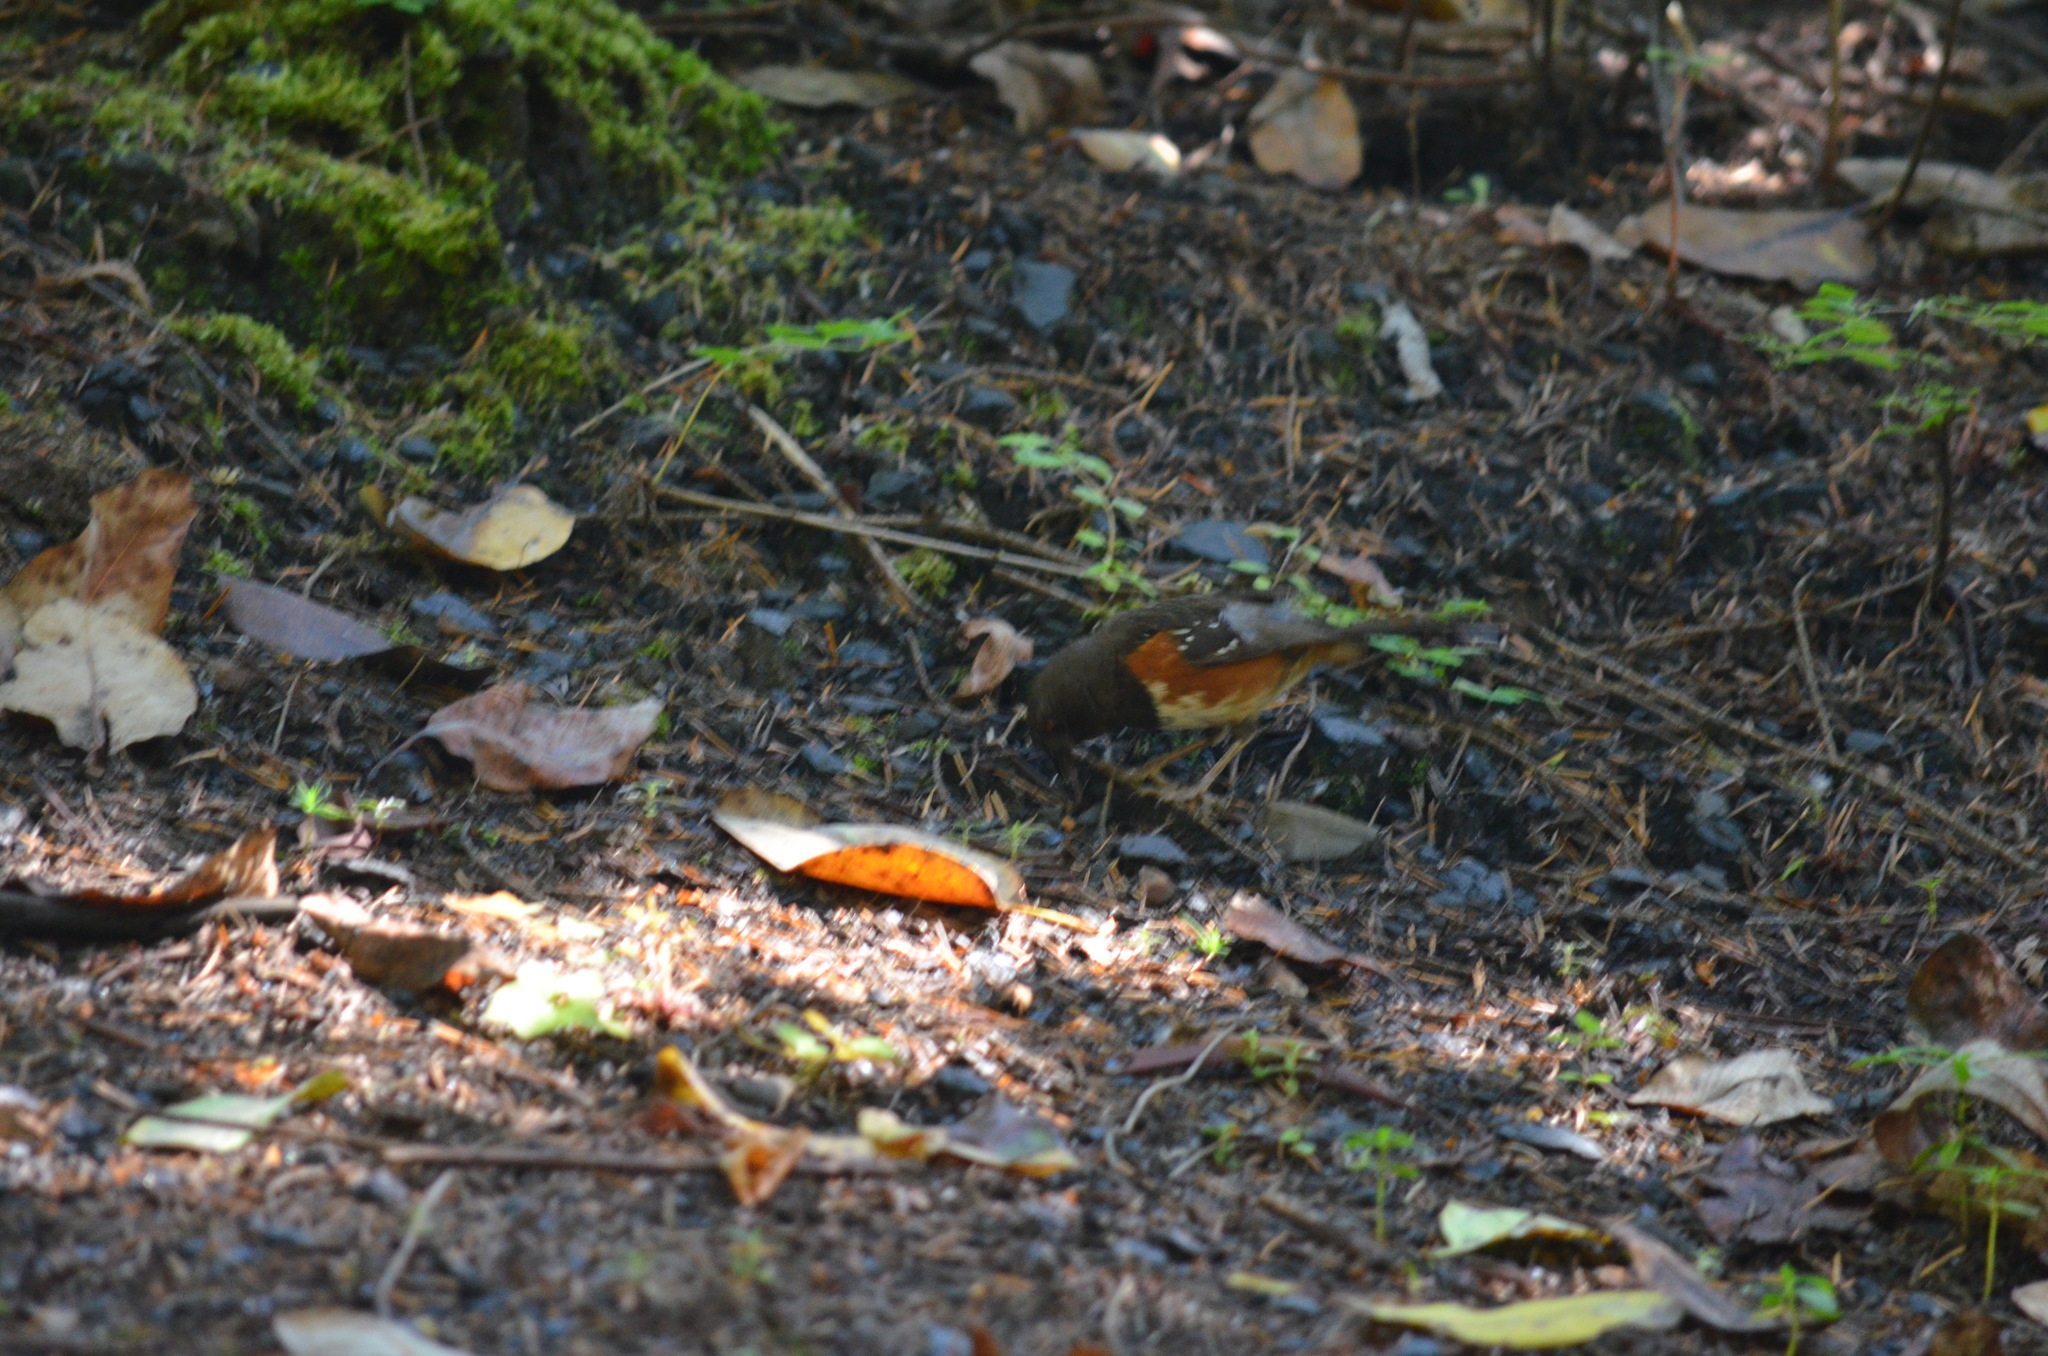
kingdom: Animalia
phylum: Chordata
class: Aves
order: Passeriformes
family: Passerellidae
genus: Pipilo
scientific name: Pipilo maculatus
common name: Spotted towhee
